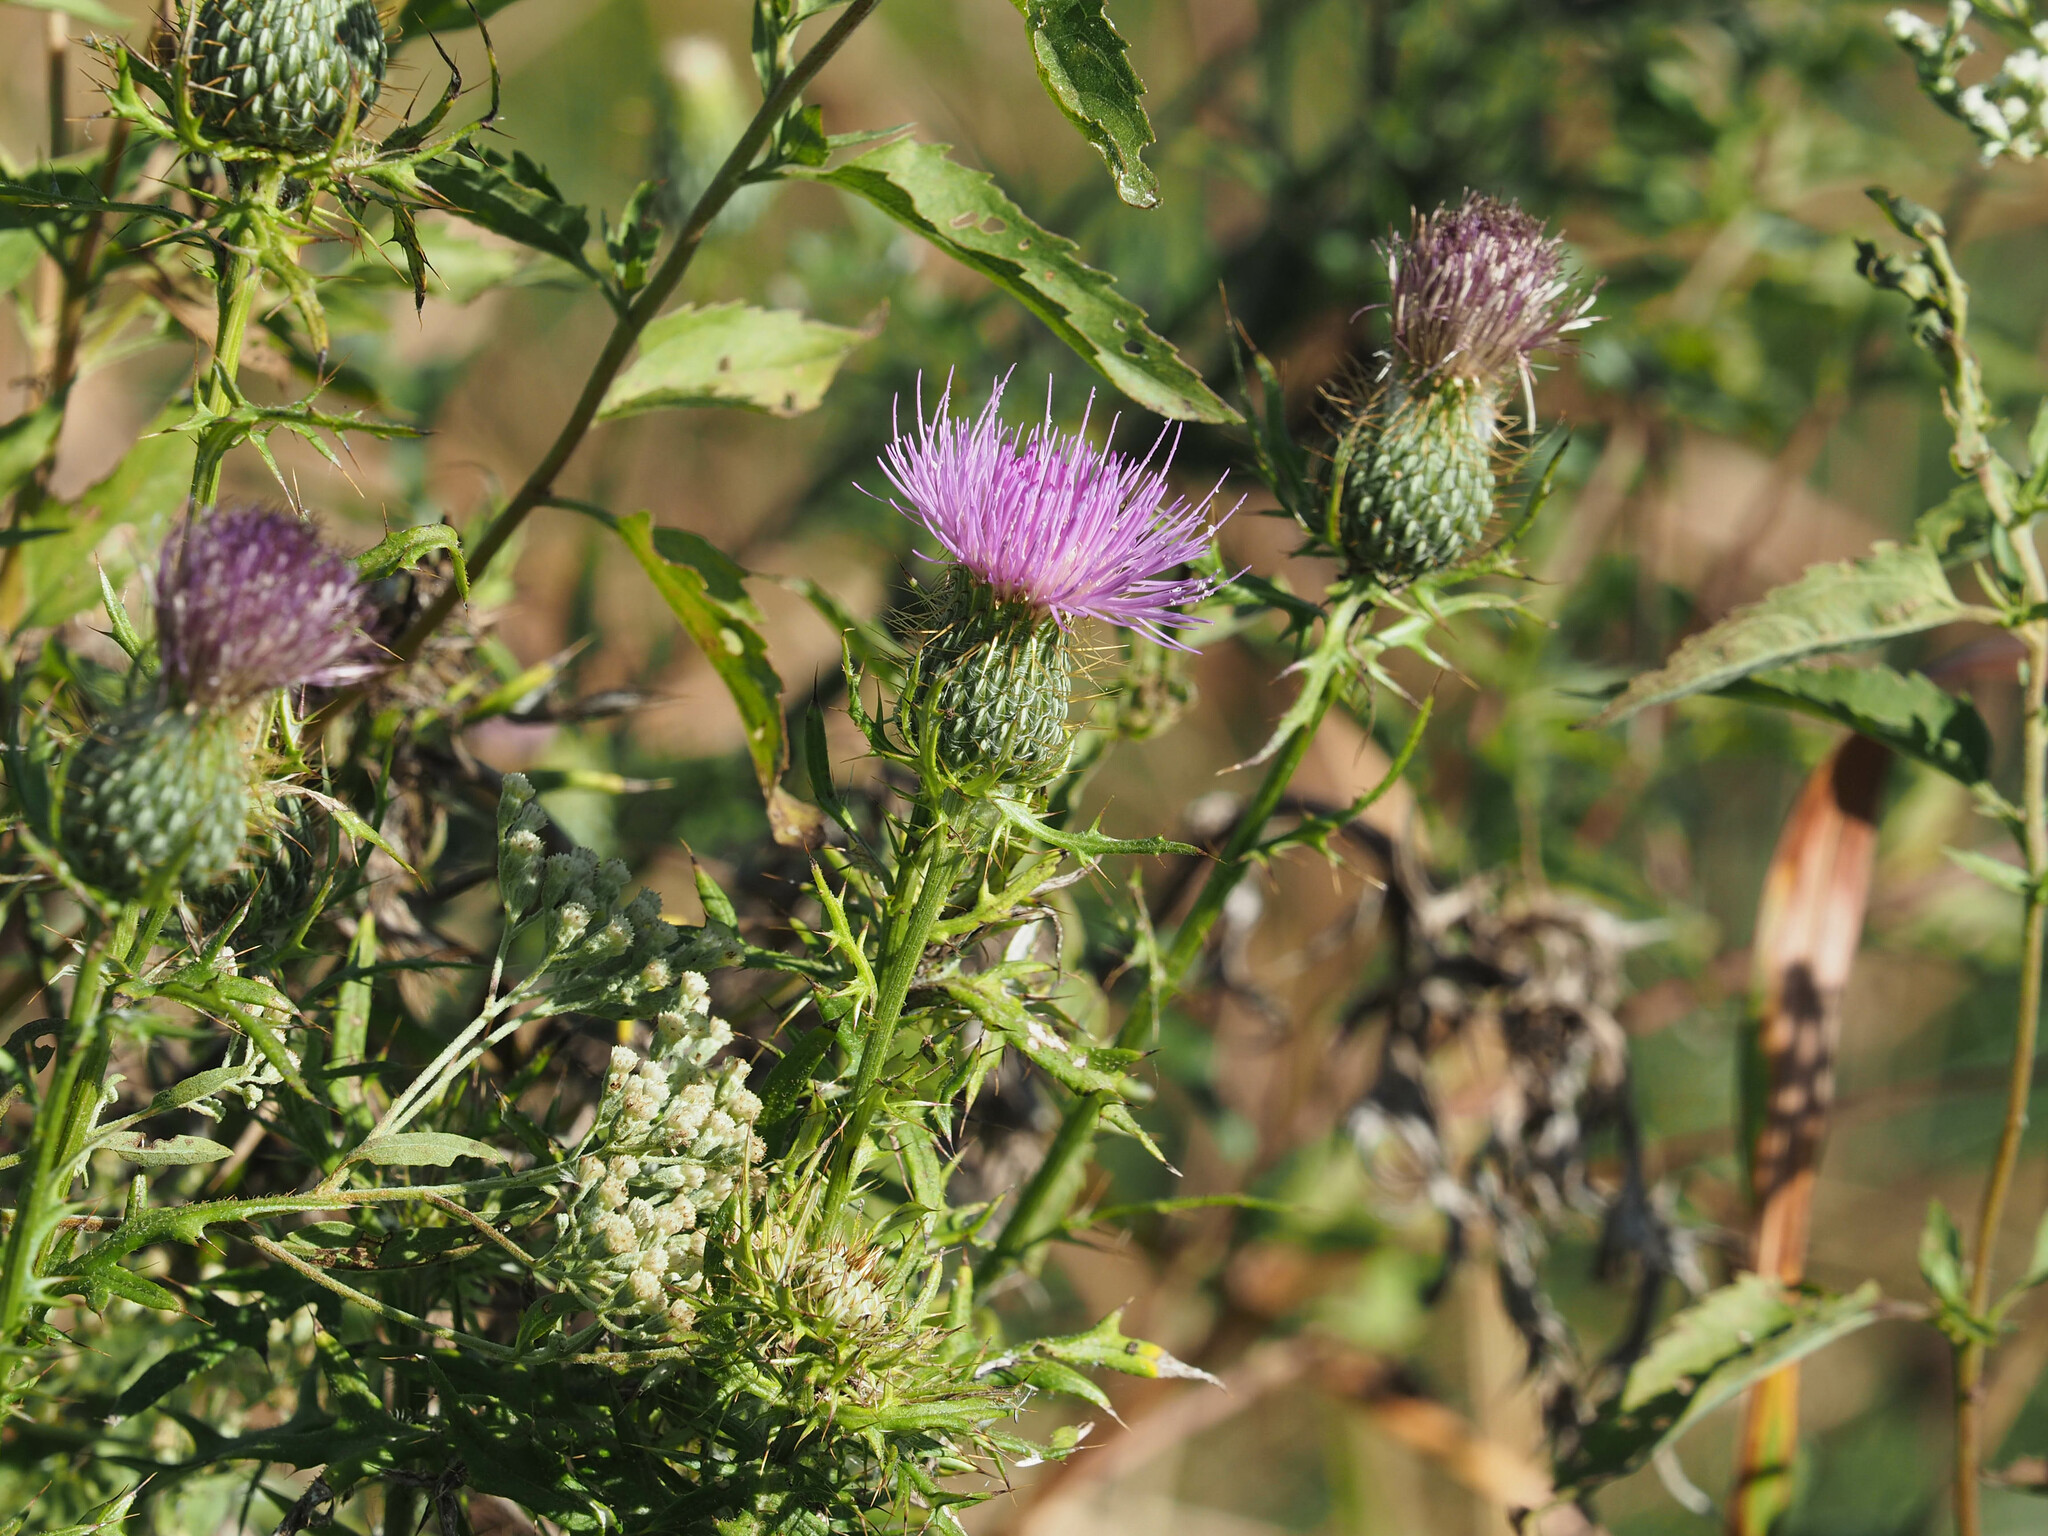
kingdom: Plantae
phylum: Tracheophyta
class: Magnoliopsida
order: Asterales
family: Asteraceae
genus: Cirsium
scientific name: Cirsium discolor
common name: Field thistle
